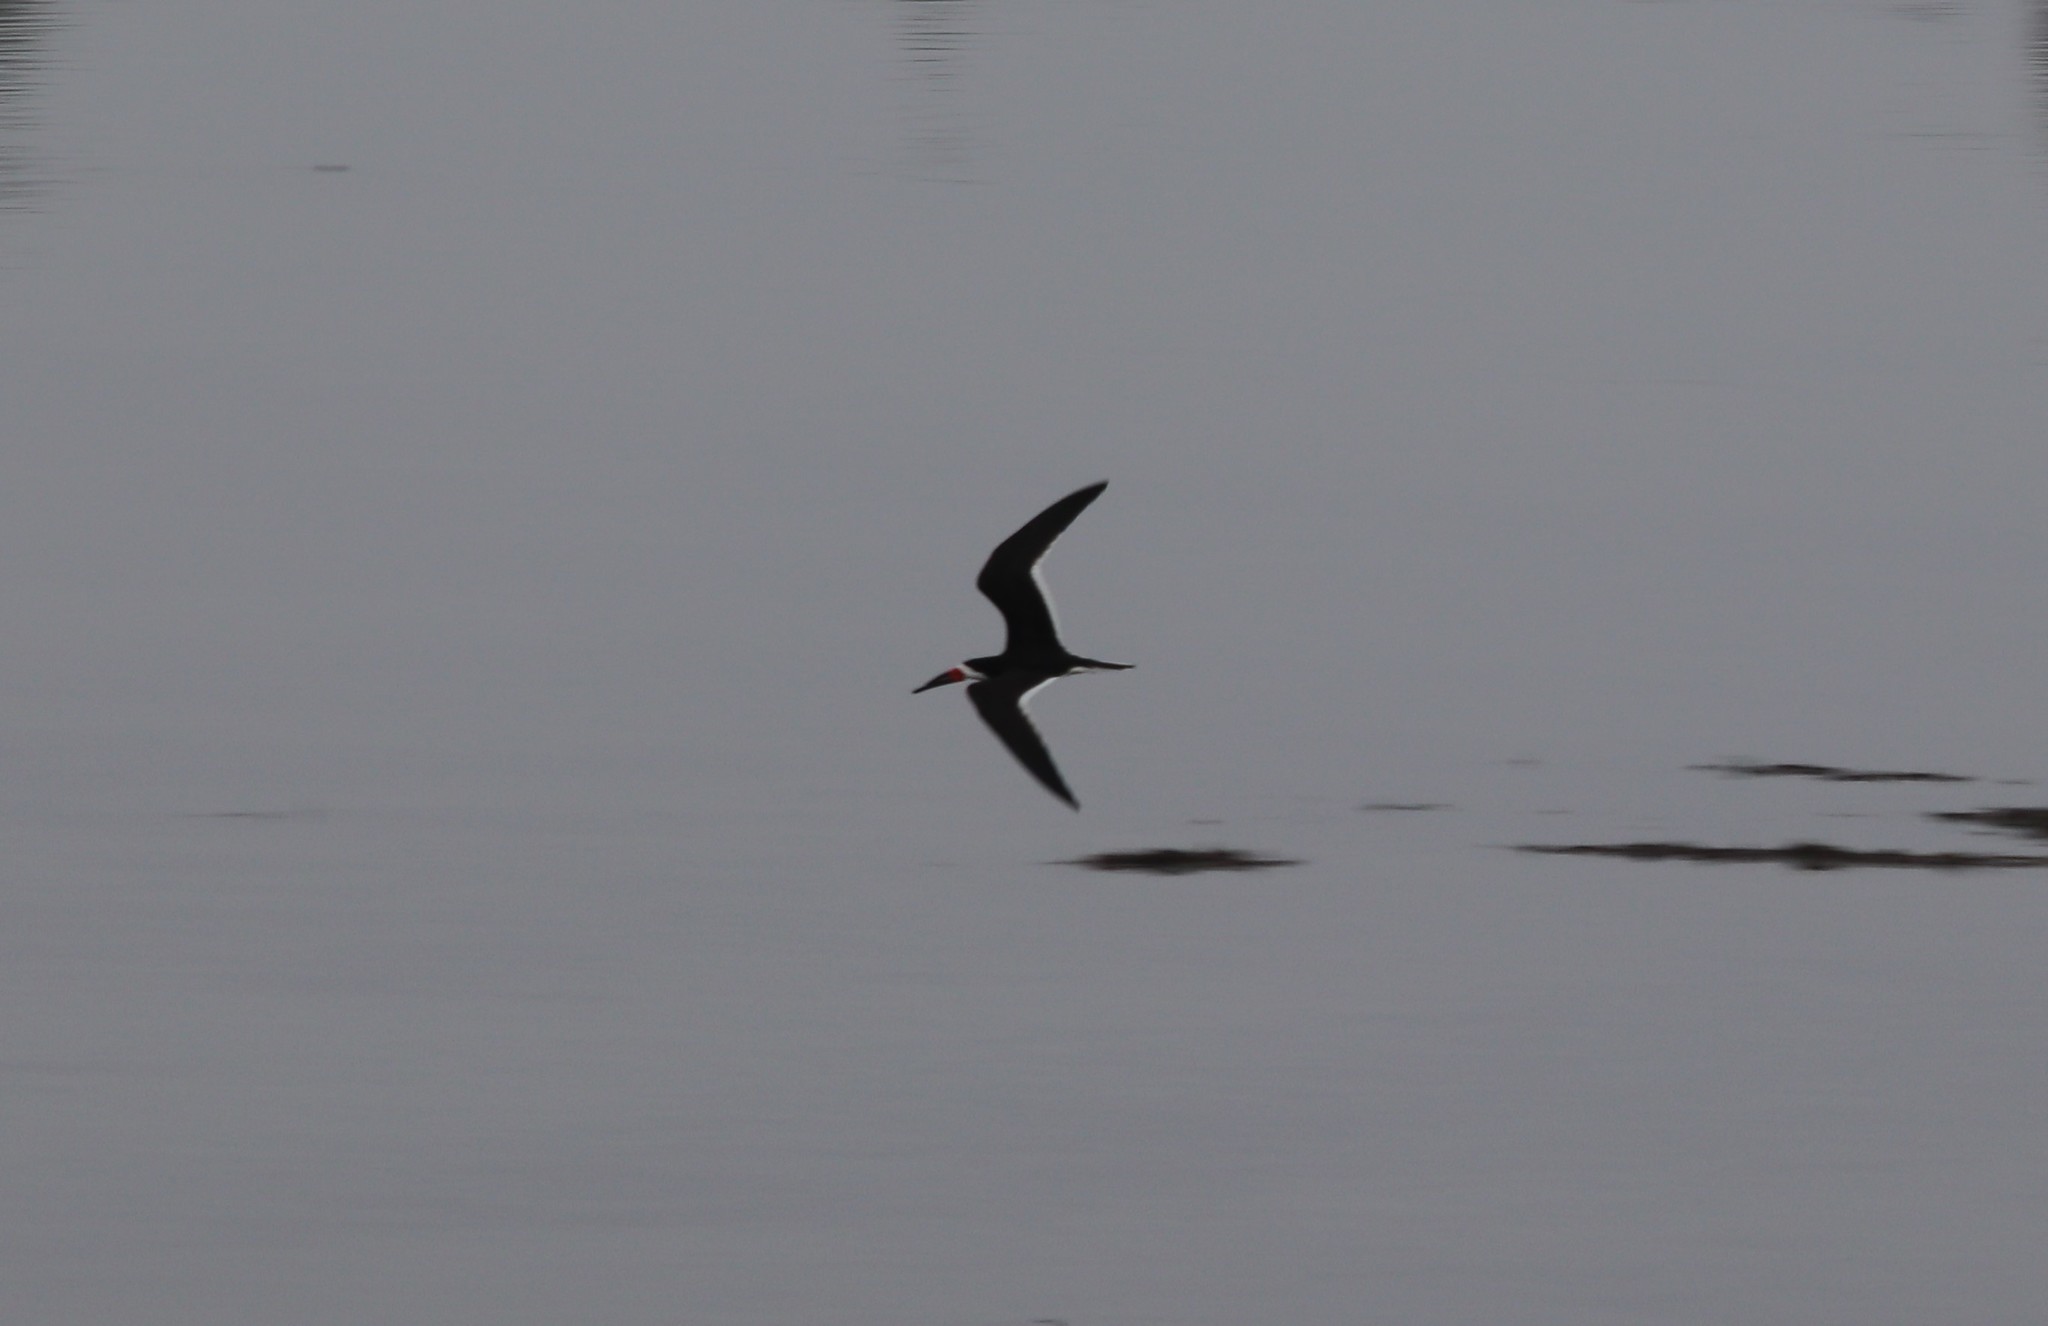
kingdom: Animalia
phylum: Chordata
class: Aves
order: Charadriiformes
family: Laridae
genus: Rynchops
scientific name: Rynchops niger
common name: Black skimmer
